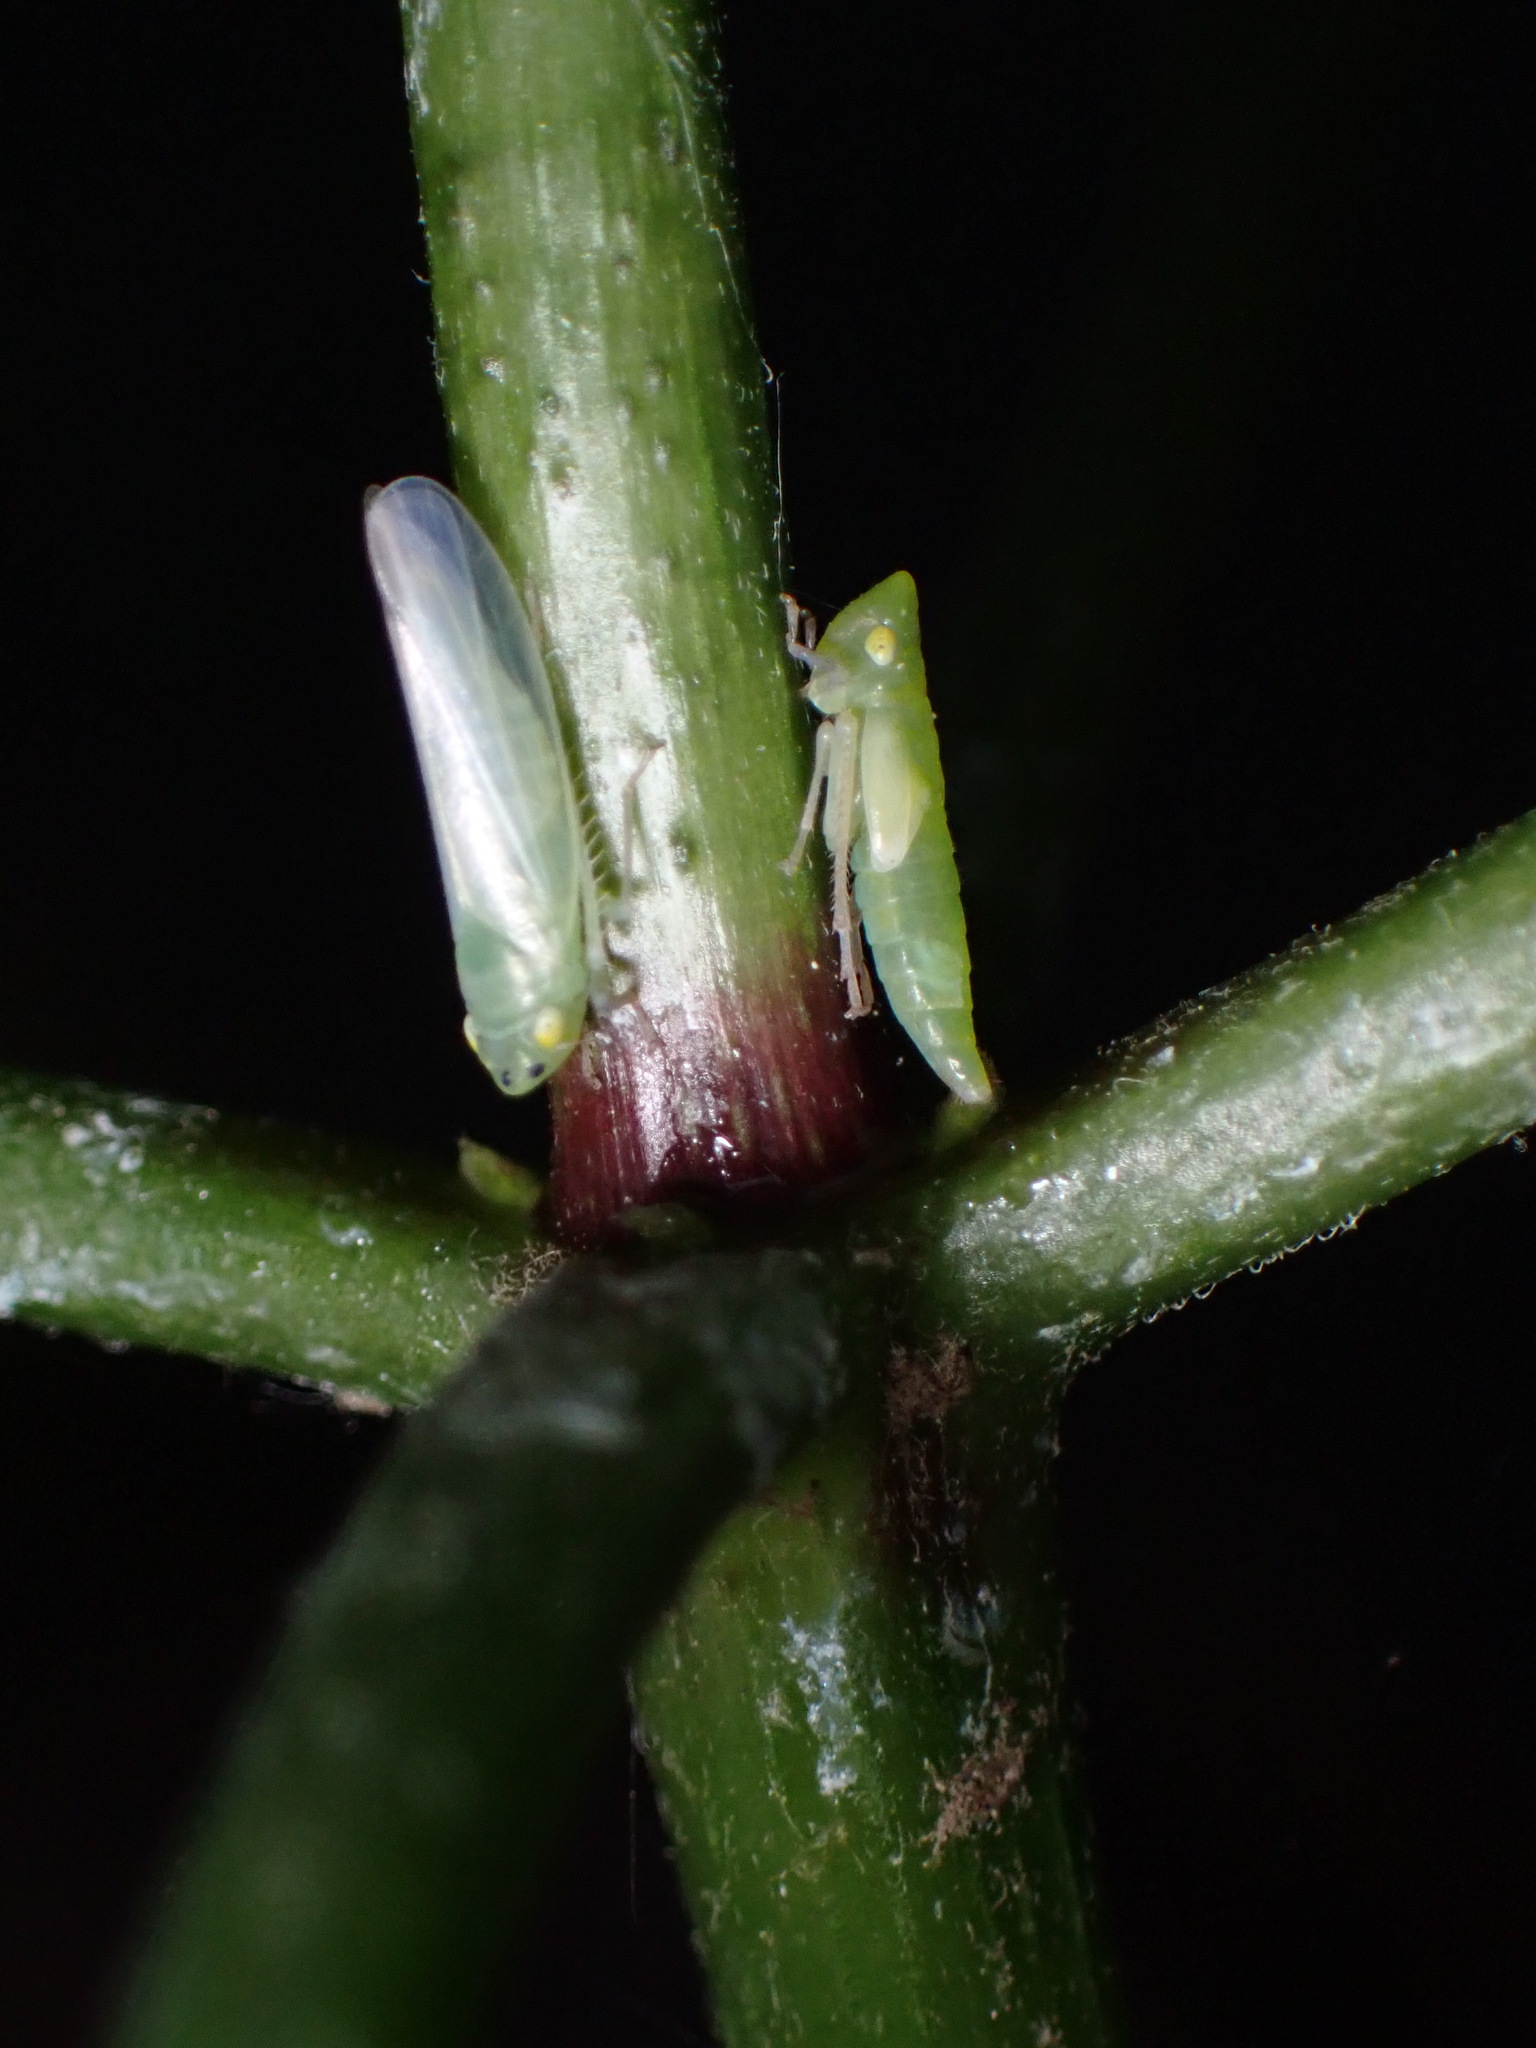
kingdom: Animalia
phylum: Arthropoda
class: Insecta
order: Hemiptera
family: Cicadellidae
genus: Pagaronia
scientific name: Pagaronia minor
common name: Leafhopper
